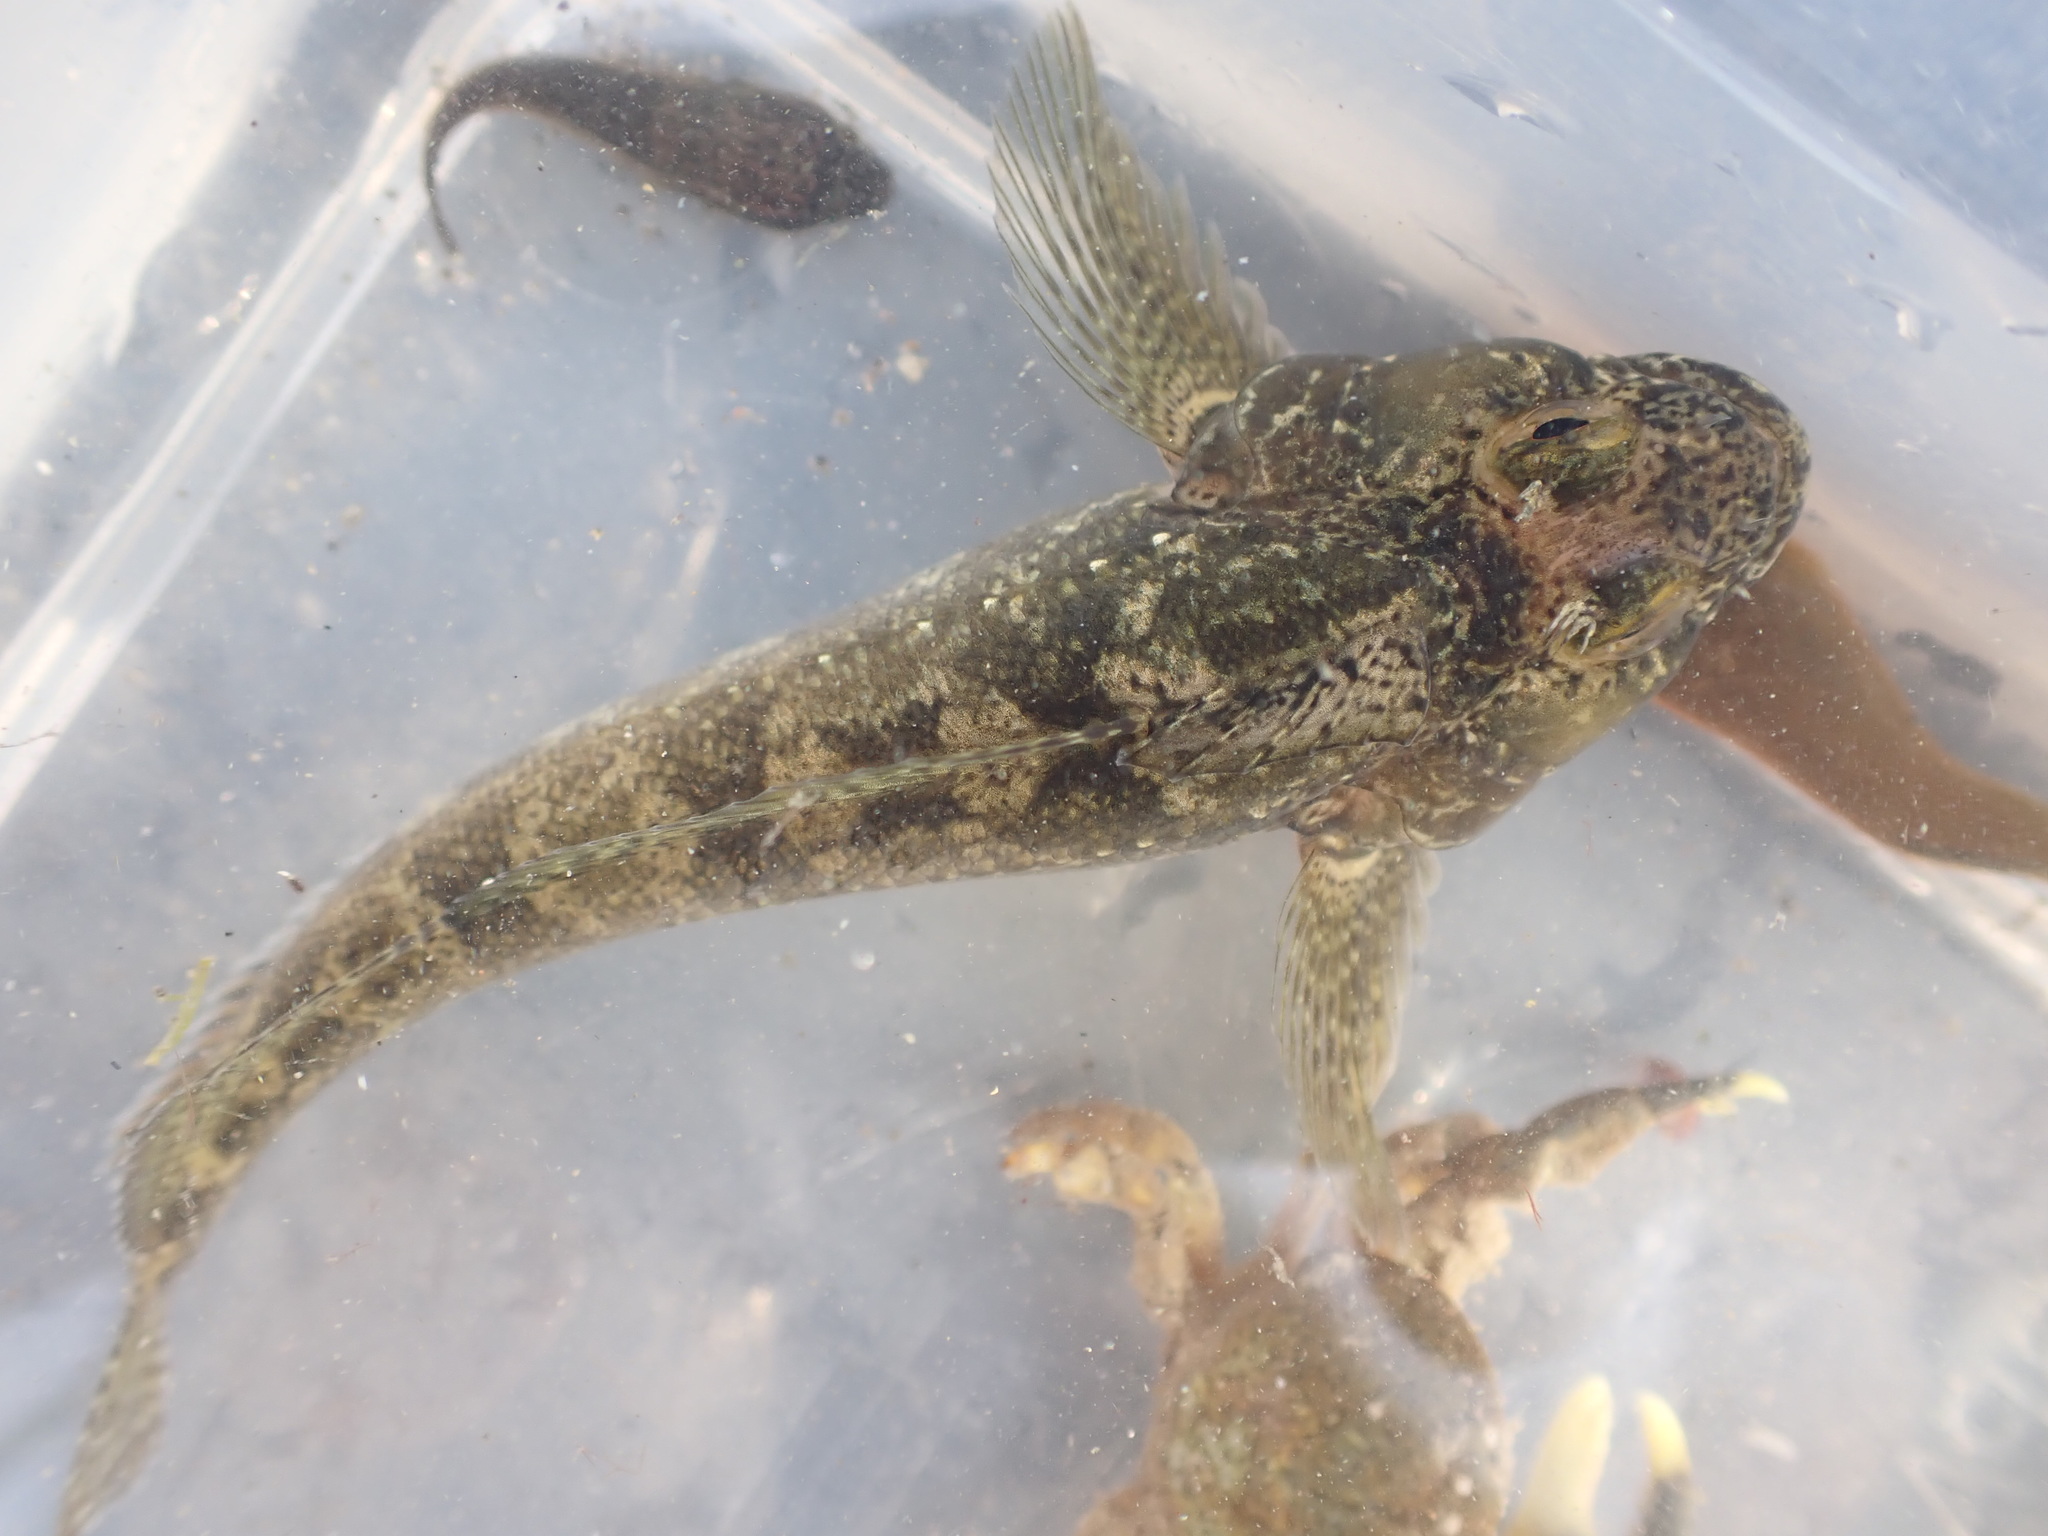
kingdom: Animalia
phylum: Chordata
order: Perciformes
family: Tripterygiidae
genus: Forsterygion
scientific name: Forsterygion gymnotum
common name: Multifid-tentacled robust triplefin
